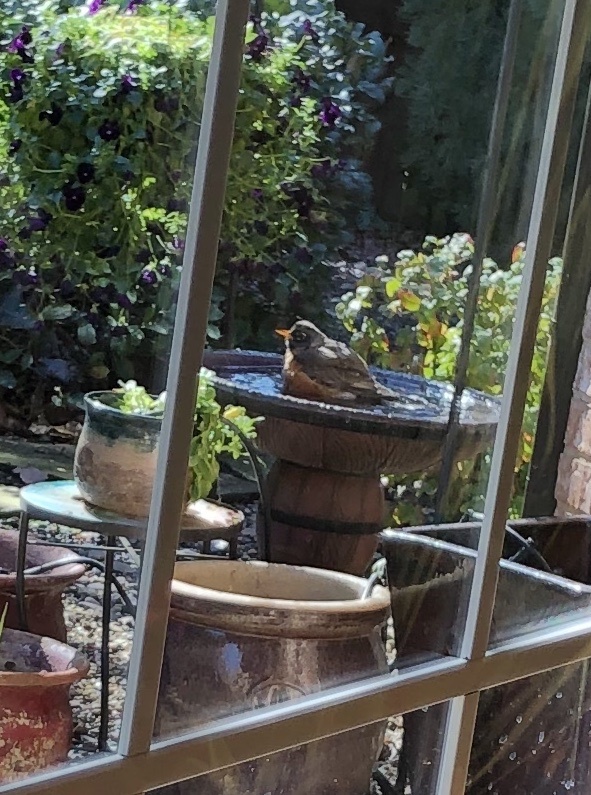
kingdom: Animalia
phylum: Chordata
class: Aves
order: Passeriformes
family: Turdidae
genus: Turdus
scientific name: Turdus migratorius
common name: American robin
